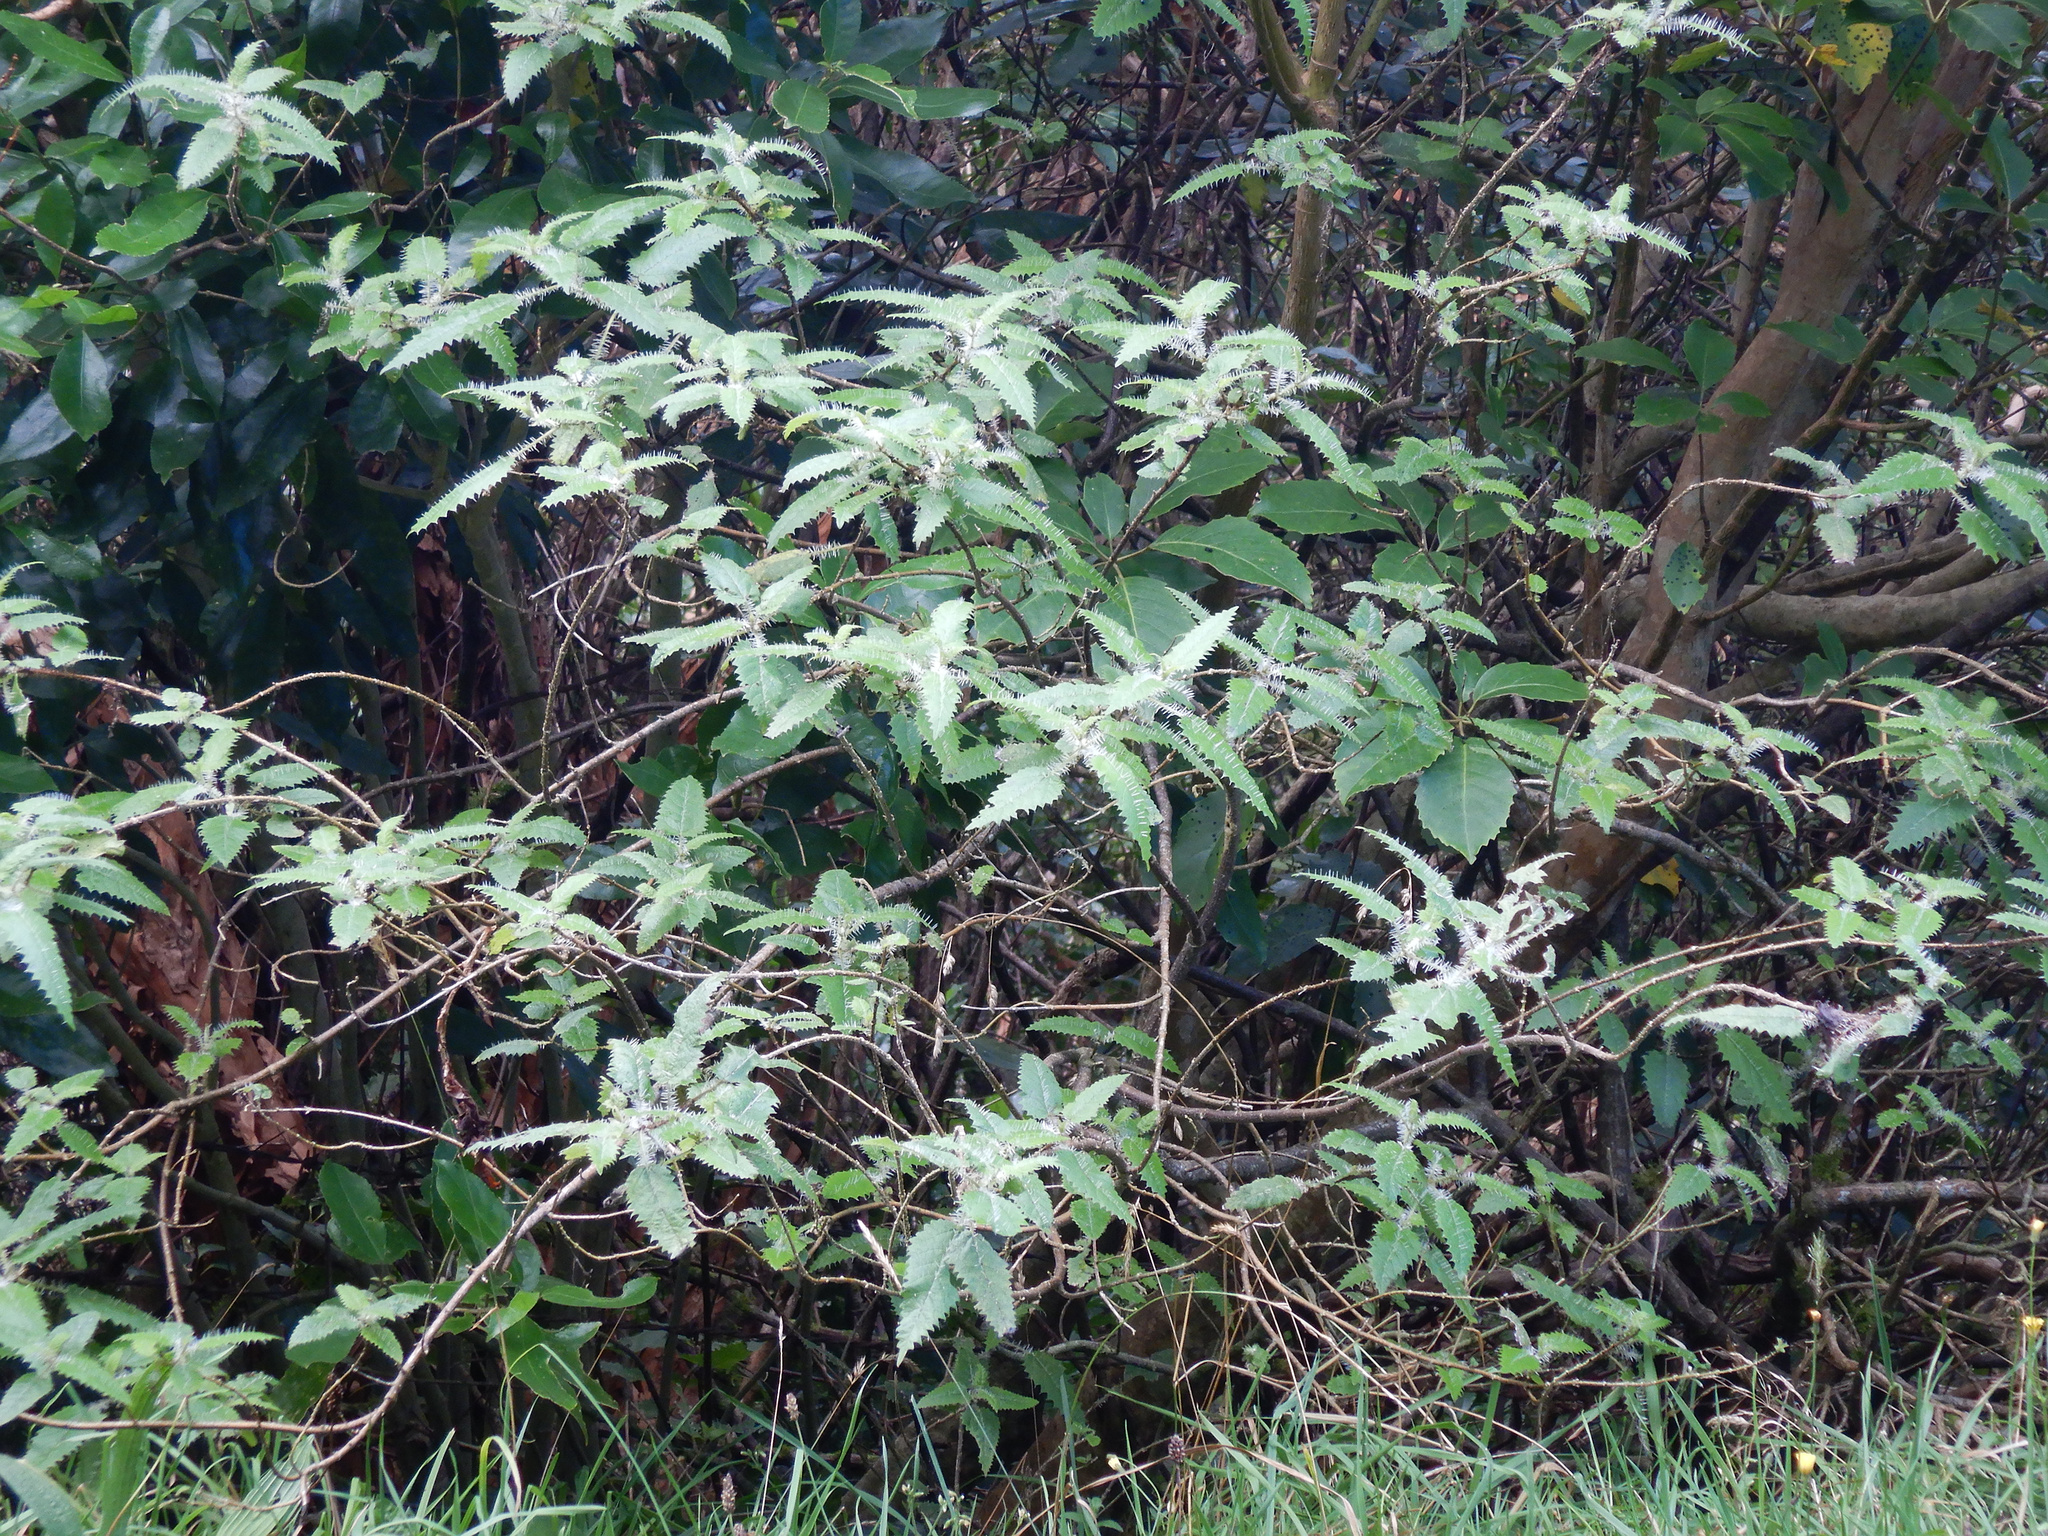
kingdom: Plantae
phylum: Tracheophyta
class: Magnoliopsida
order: Rosales
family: Urticaceae
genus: Urtica
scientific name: Urtica ferox
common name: Tree nettle
